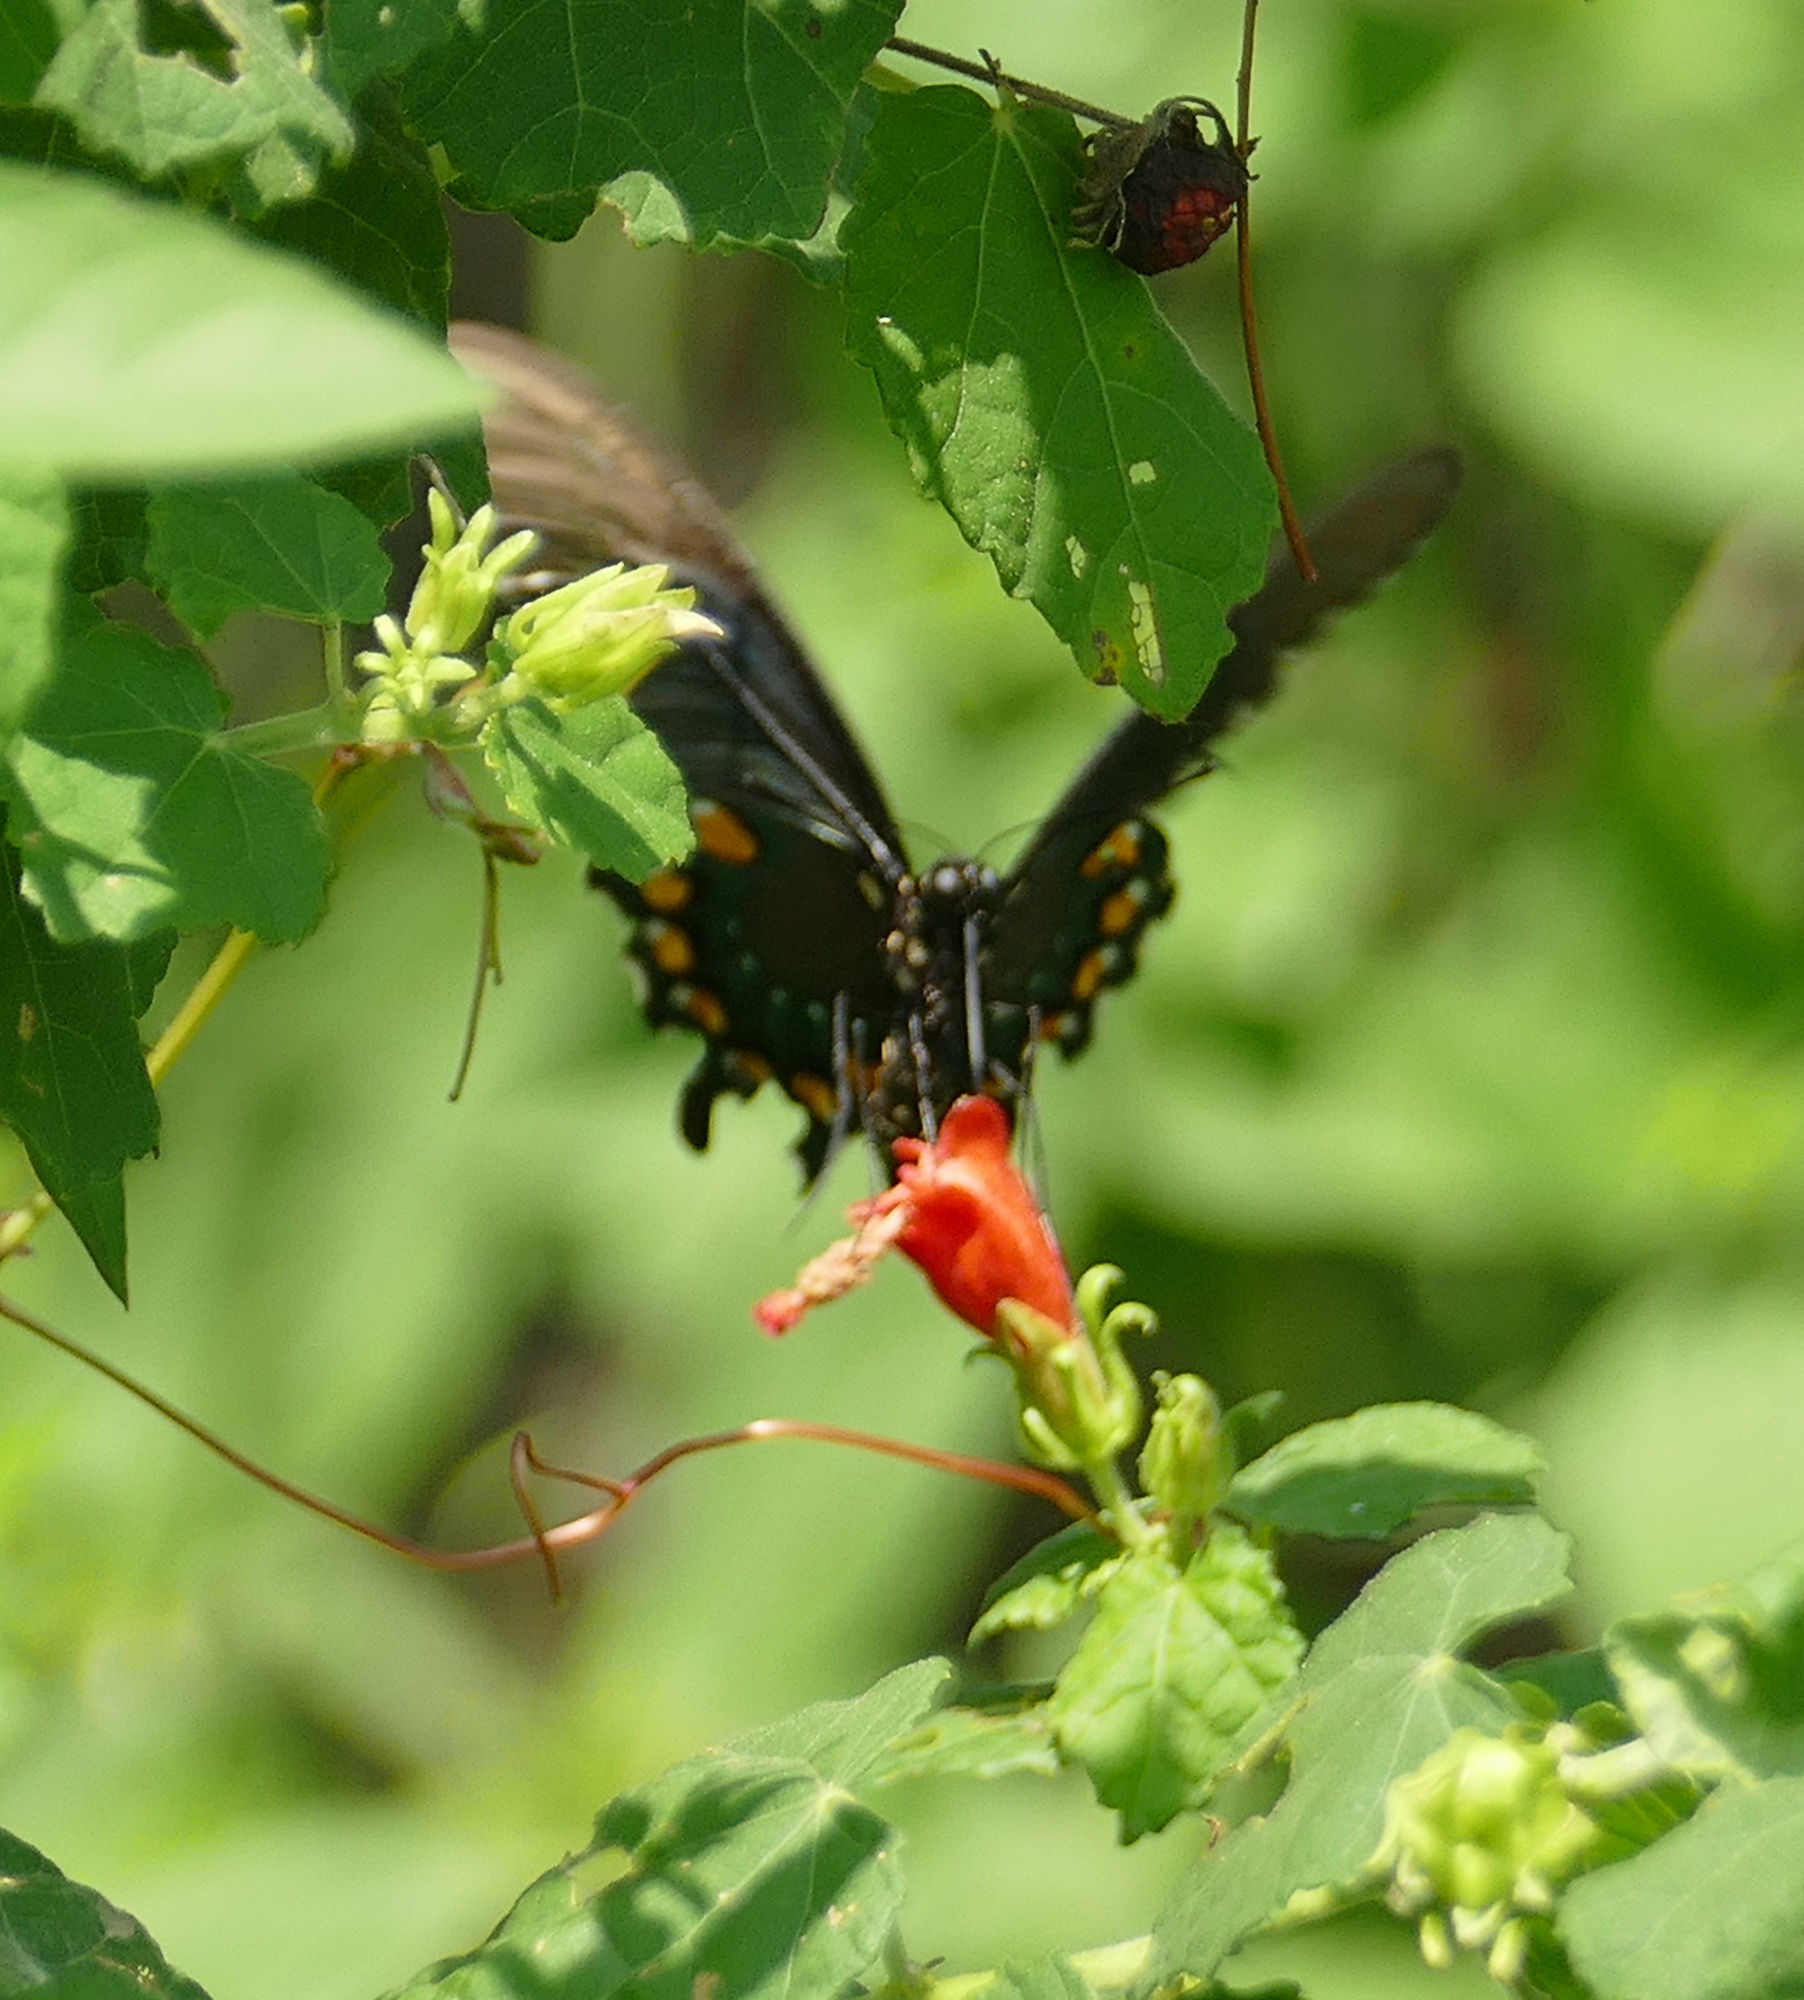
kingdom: Animalia
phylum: Arthropoda
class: Insecta
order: Lepidoptera
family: Papilionidae
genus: Battus
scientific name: Battus philenor
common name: Pipevine swallowtail
